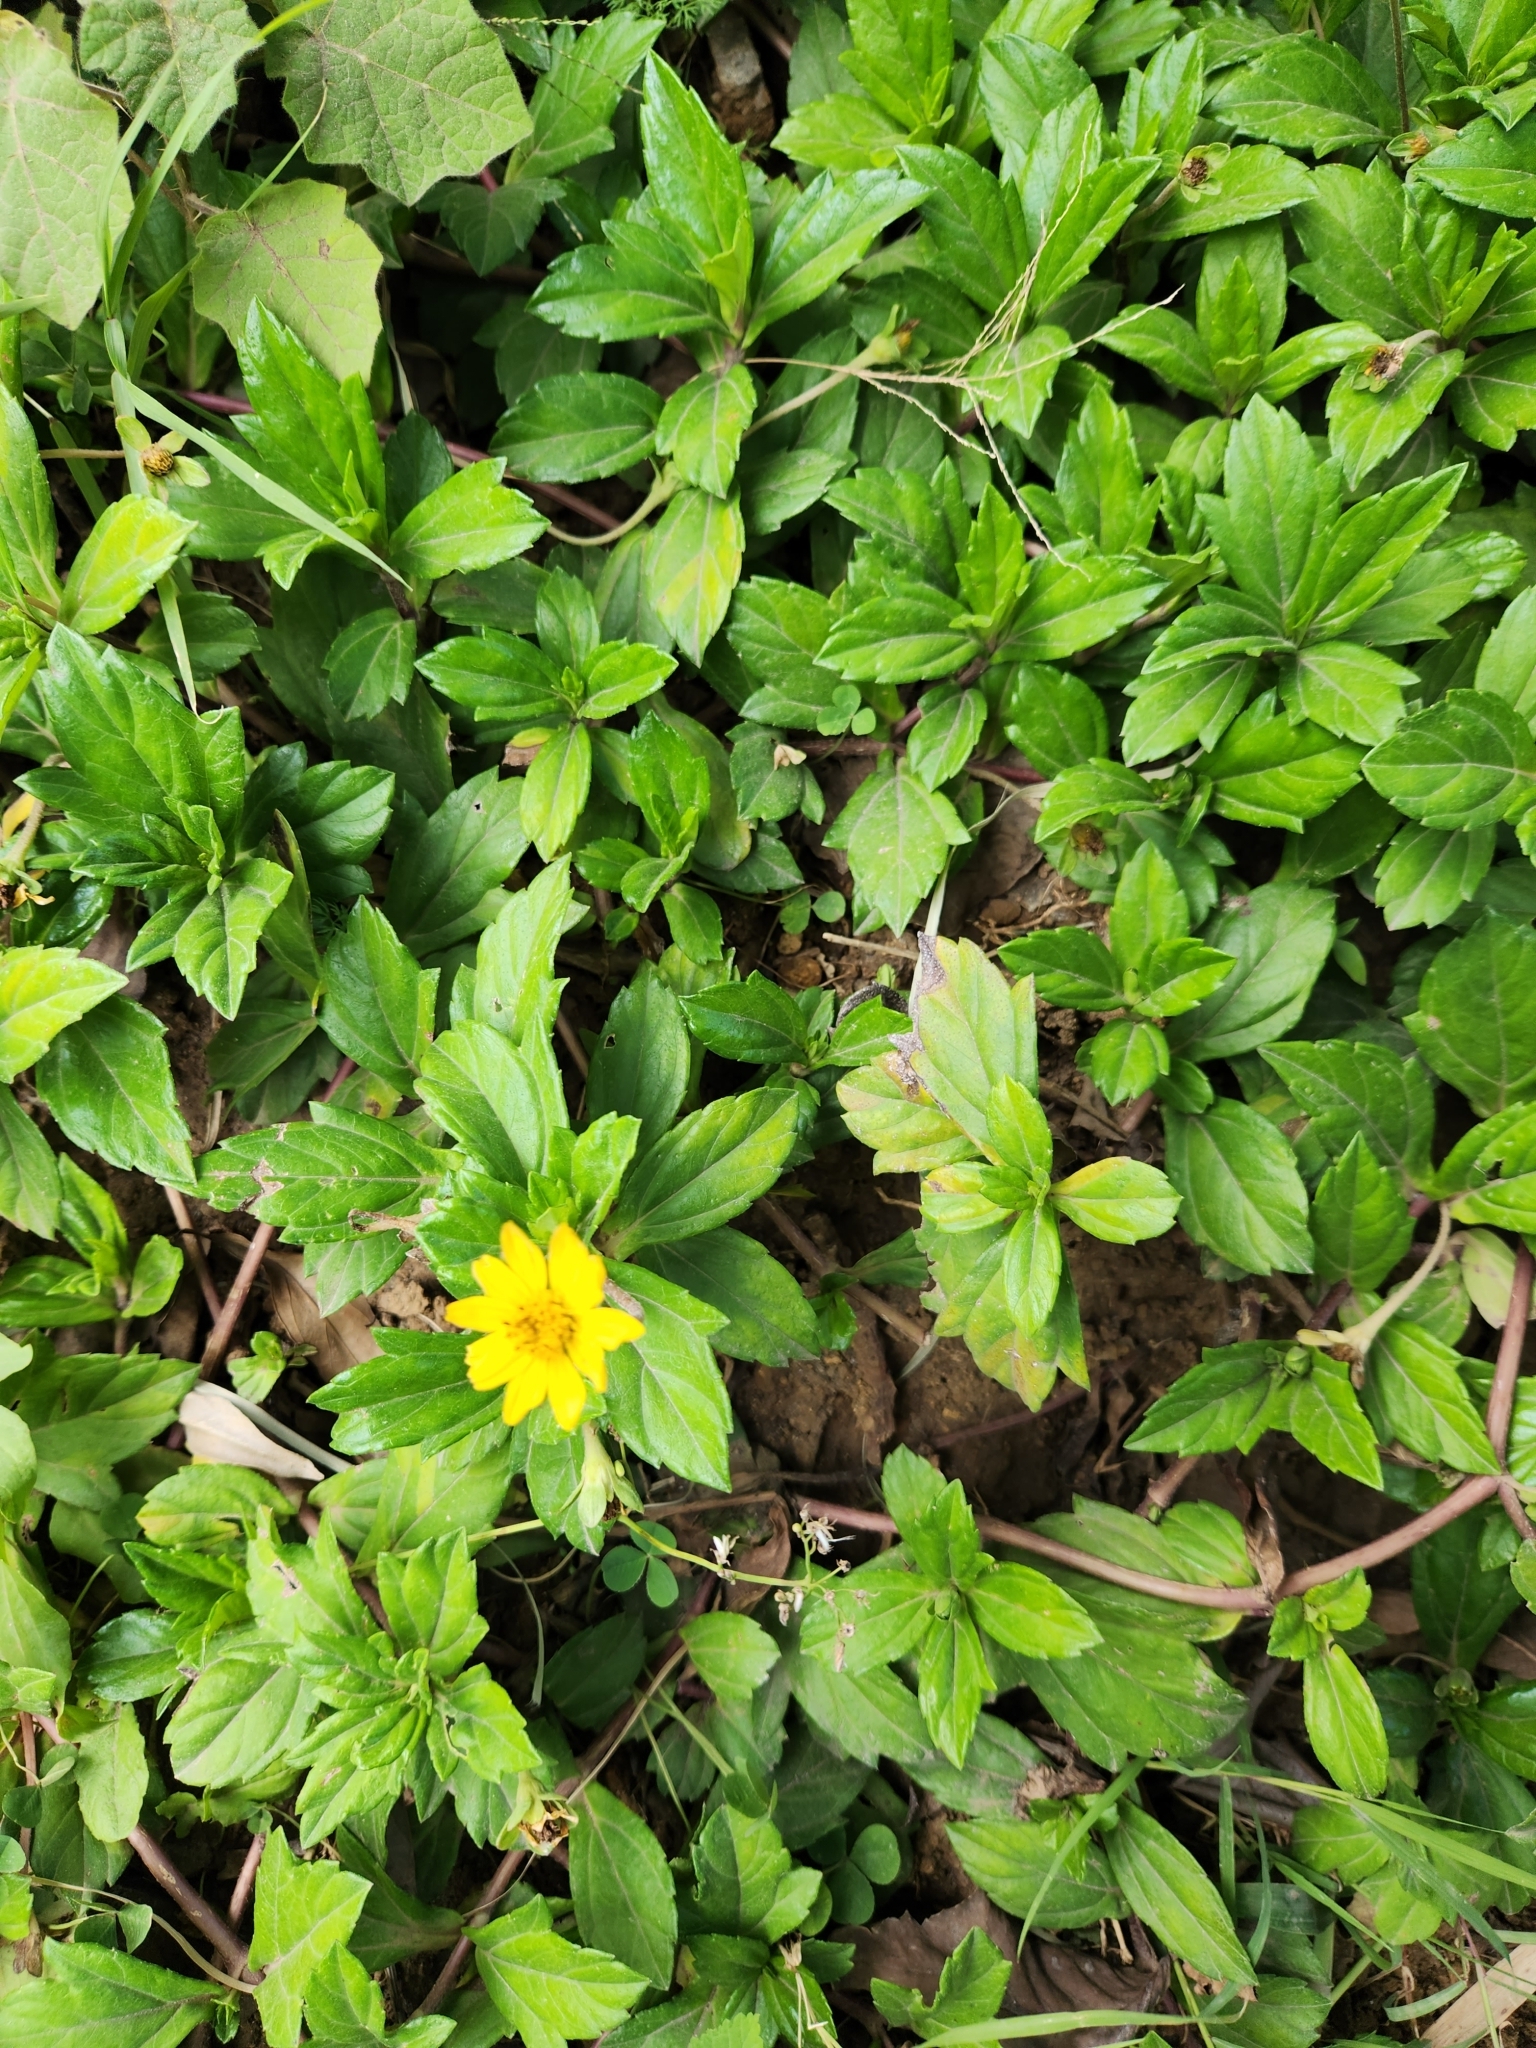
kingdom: Plantae
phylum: Tracheophyta
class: Magnoliopsida
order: Asterales
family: Asteraceae
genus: Sphagneticola
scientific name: Sphagneticola trilobata
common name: Bay biscayne creeping-oxeye
